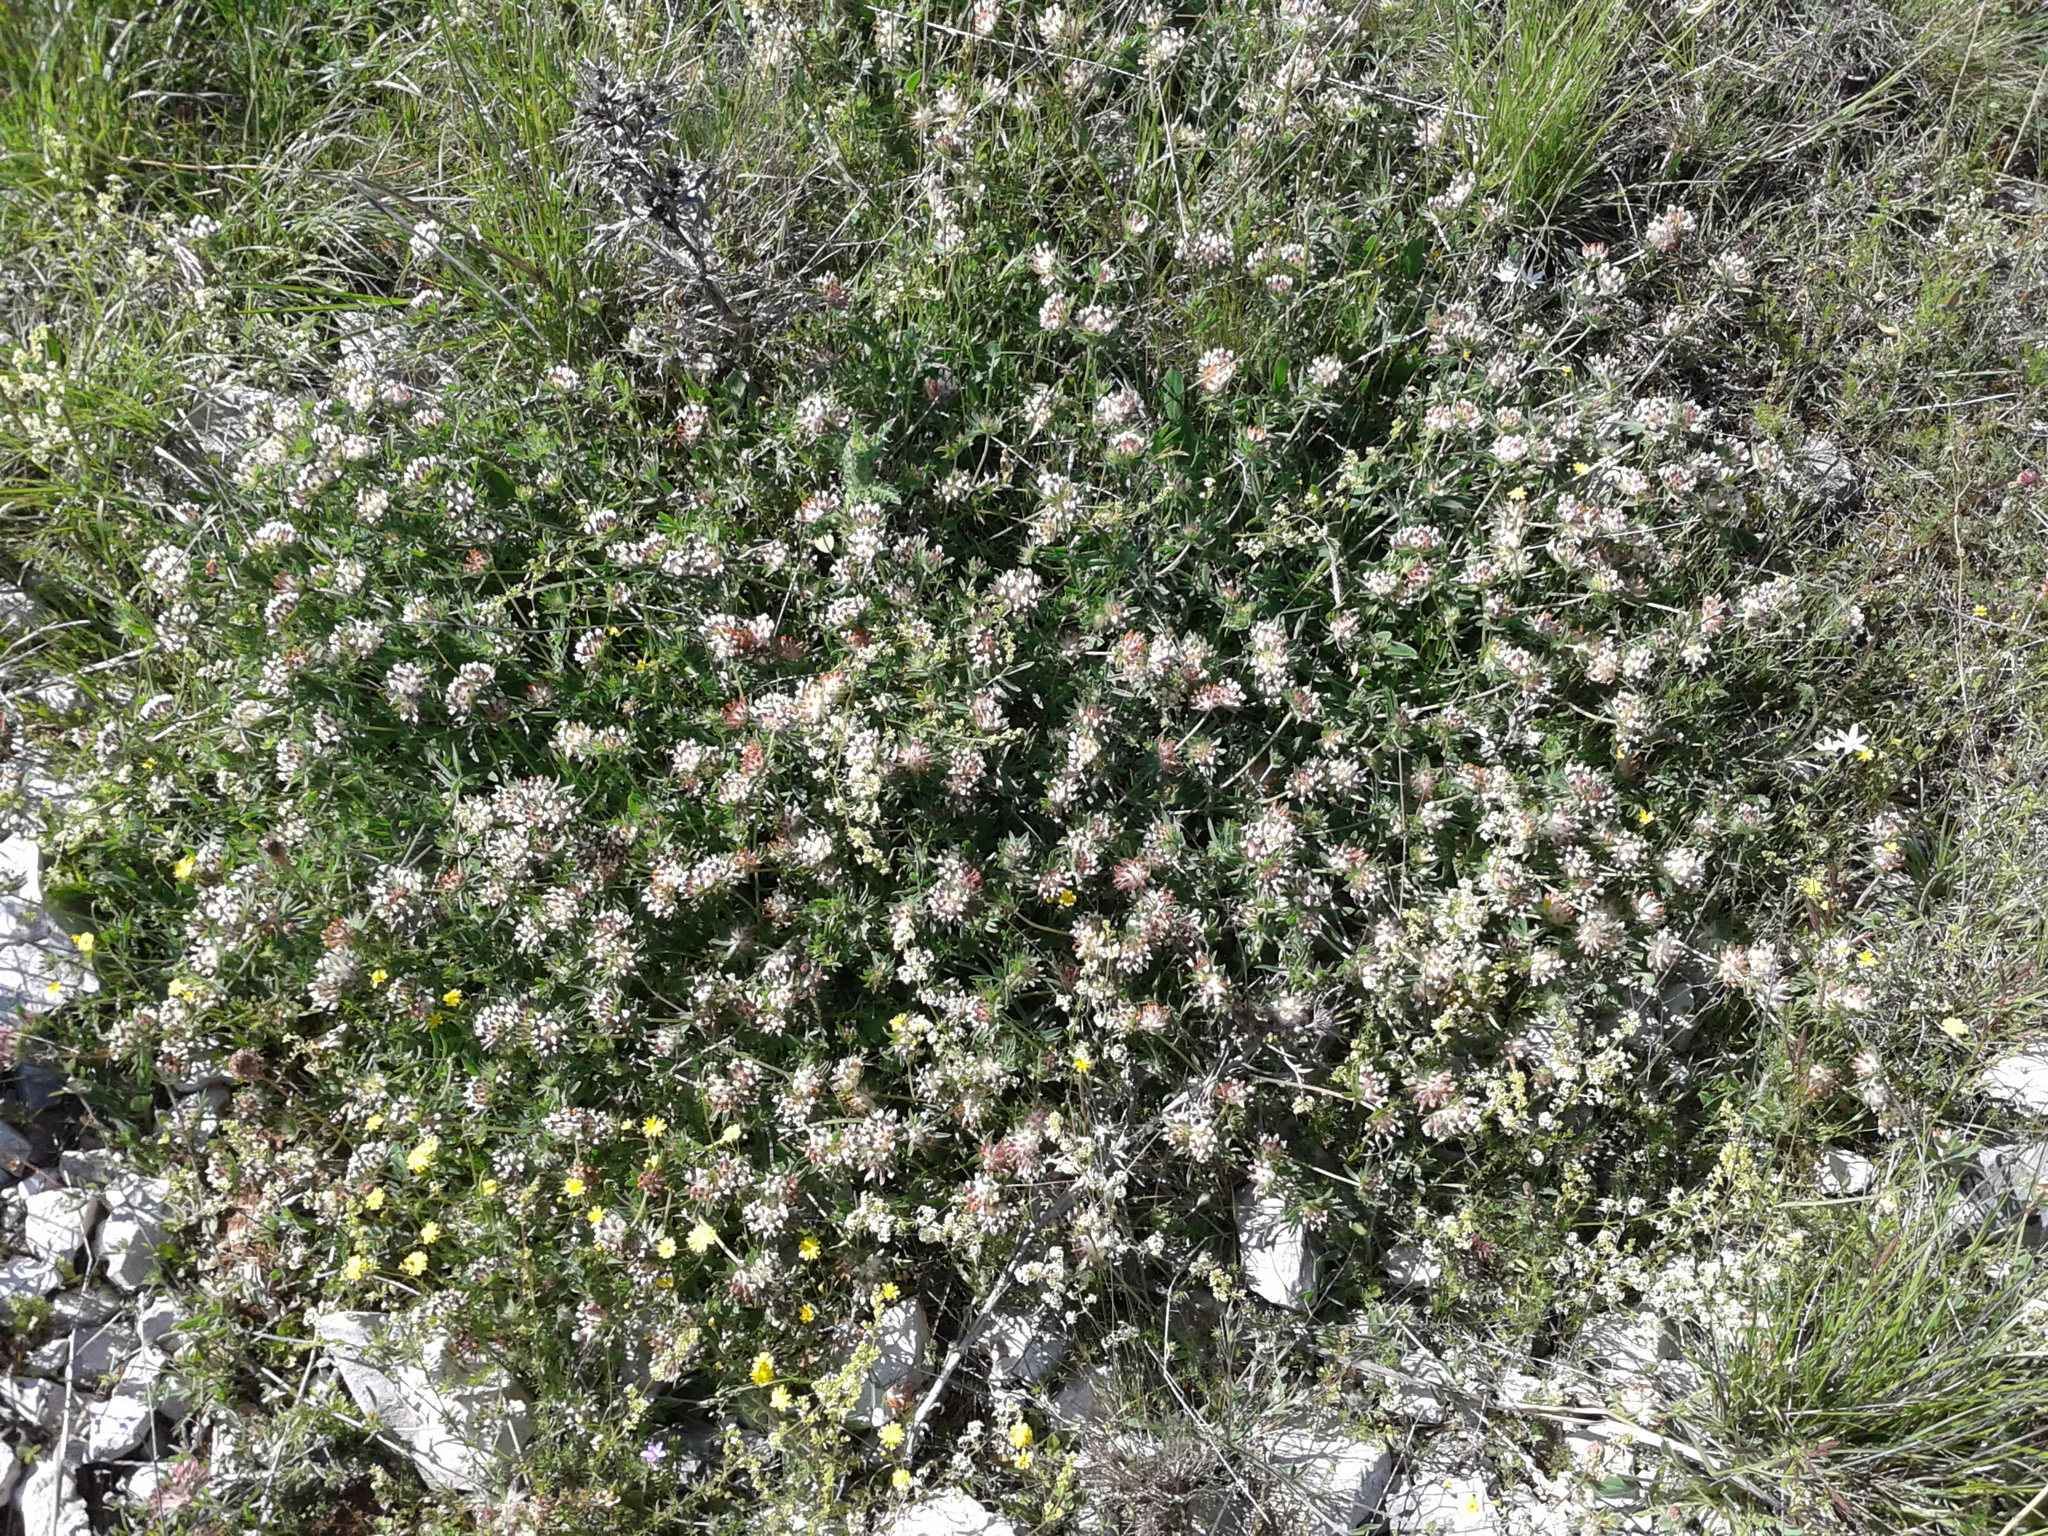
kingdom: Plantae
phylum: Tracheophyta
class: Magnoliopsida
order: Fabales
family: Fabaceae
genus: Lotus
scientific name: Lotus hirsutus
